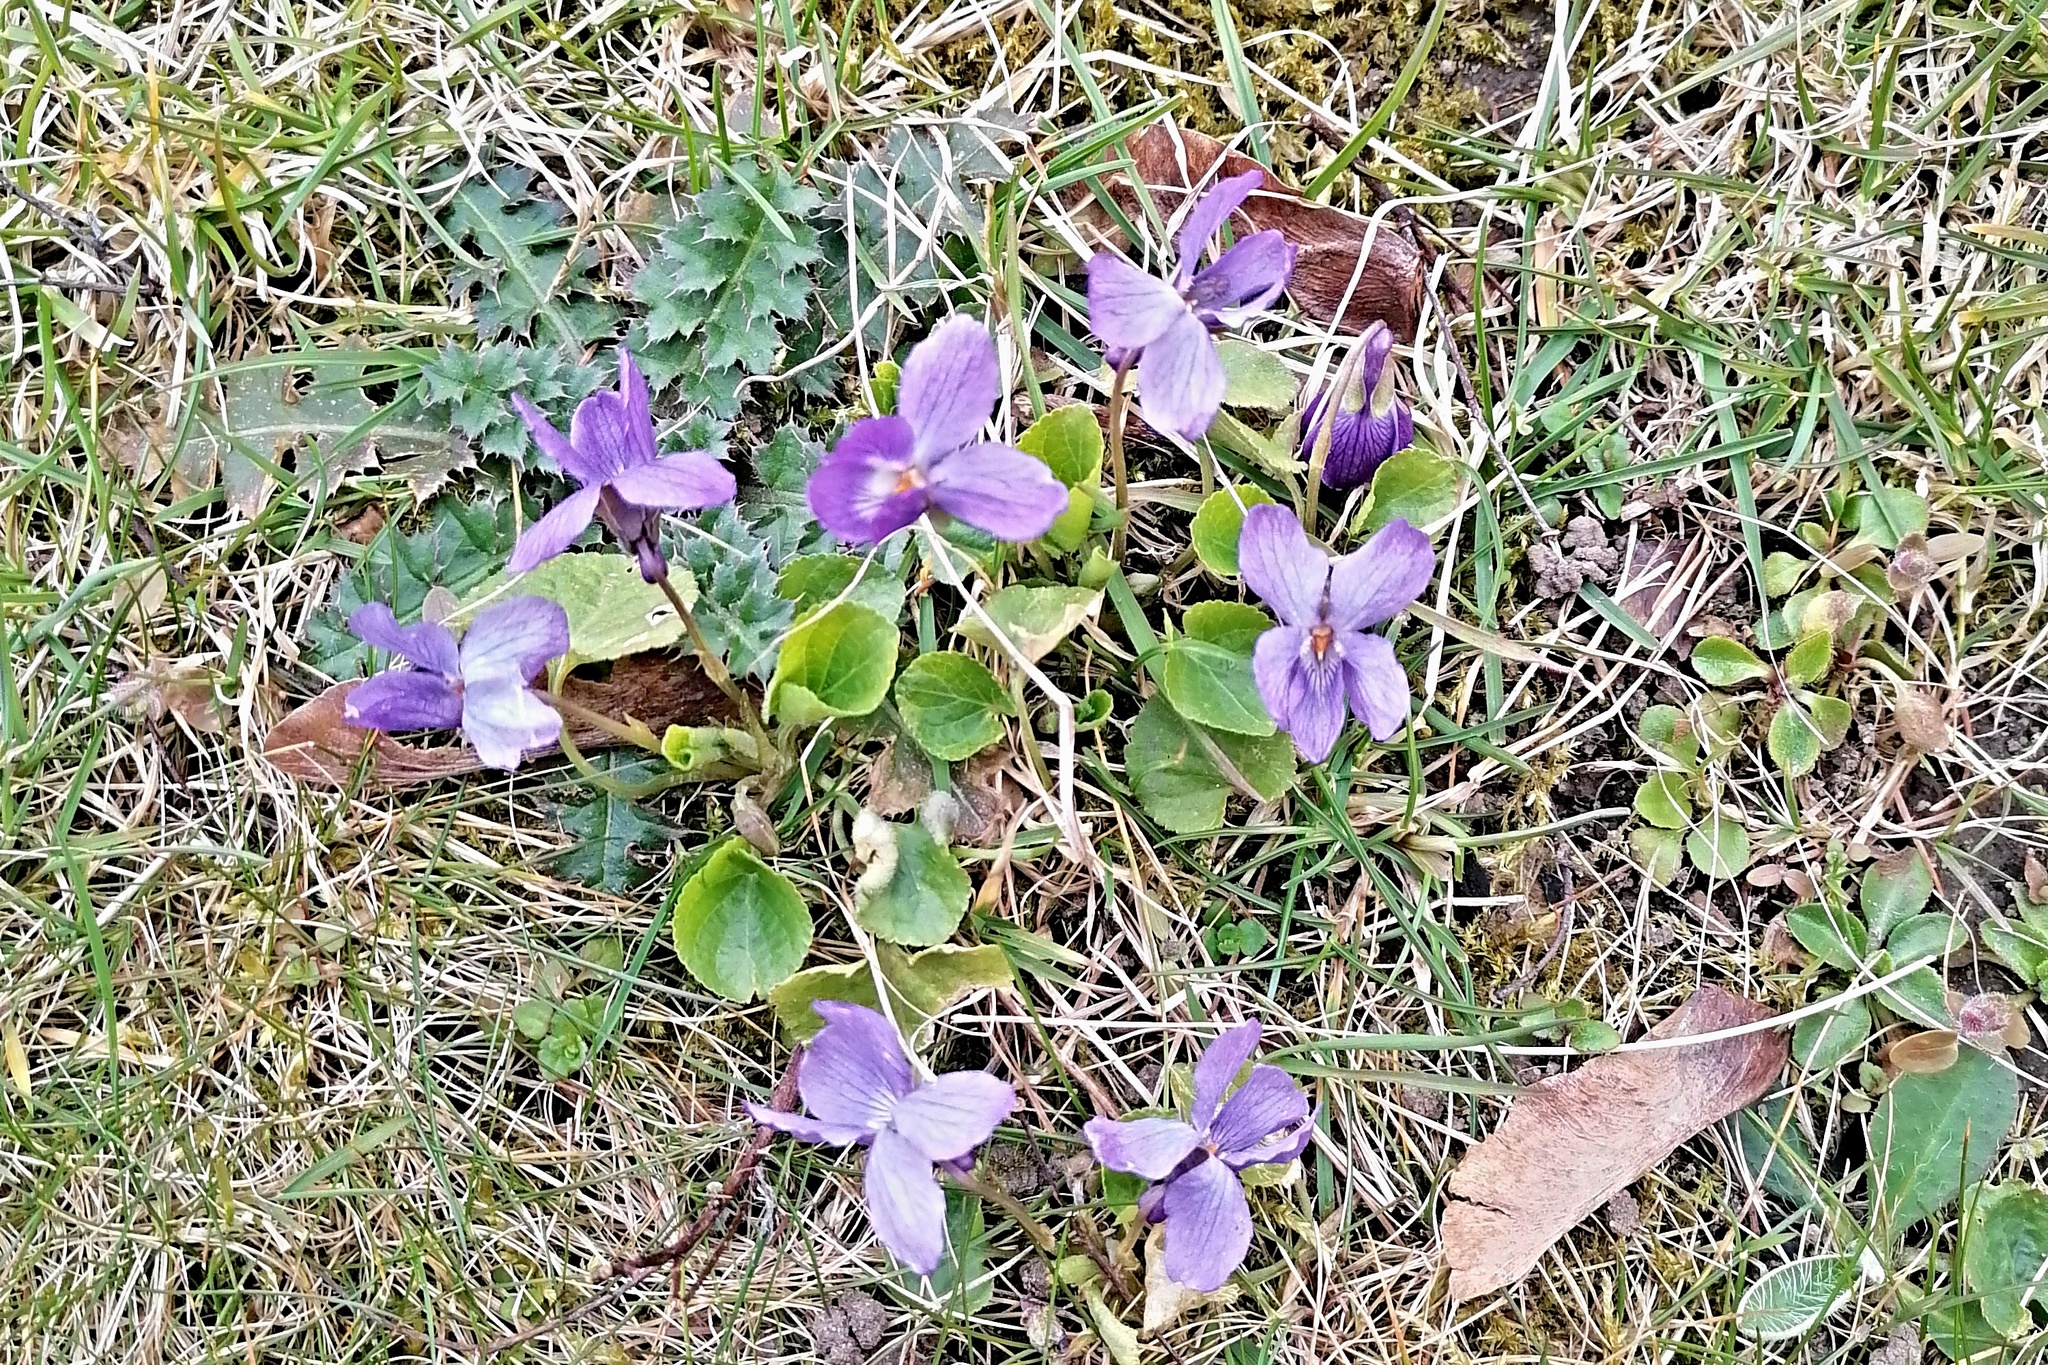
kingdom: Plantae
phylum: Tracheophyta
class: Magnoliopsida
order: Malpighiales
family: Violaceae
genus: Viola
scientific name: Viola odorata
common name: Sweet violet
